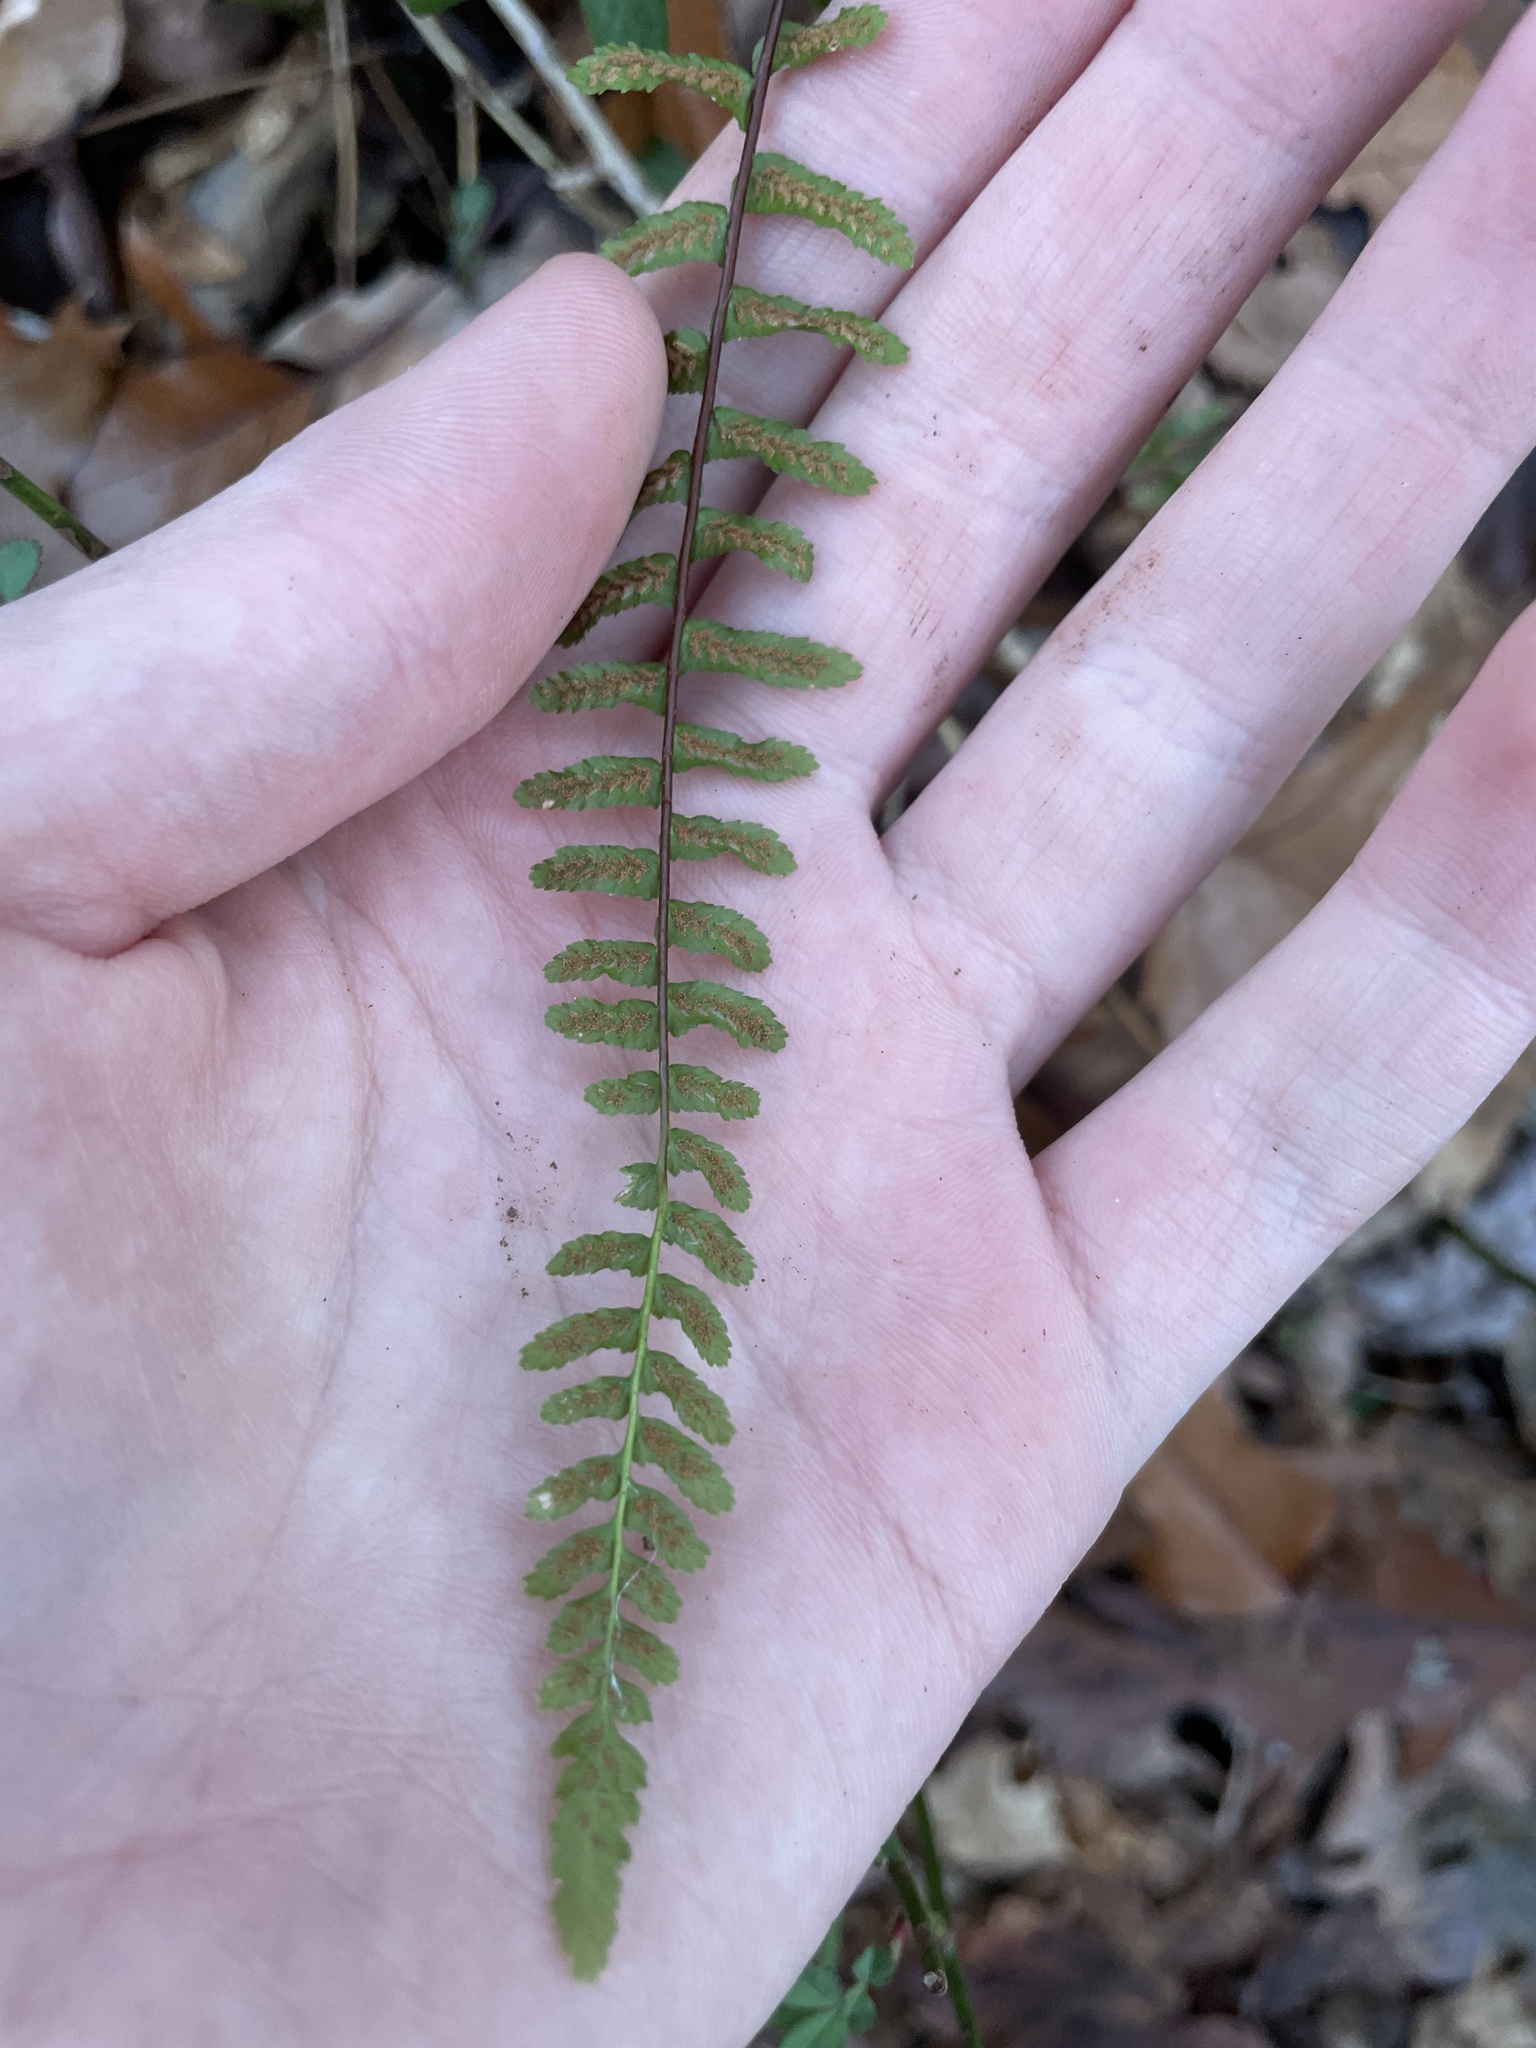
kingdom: Plantae
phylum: Tracheophyta
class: Polypodiopsida
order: Polypodiales
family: Aspleniaceae
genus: Asplenium
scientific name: Asplenium platyneuron
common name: Ebony spleenwort
